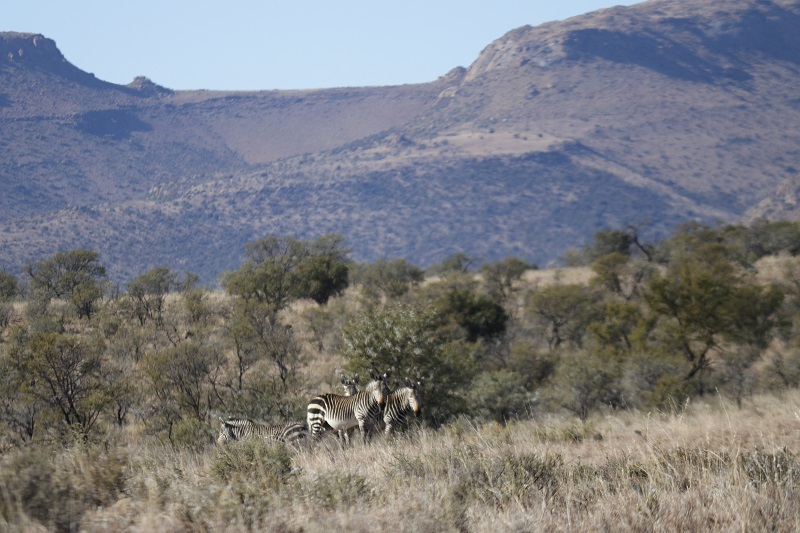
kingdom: Animalia
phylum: Chordata
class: Mammalia
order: Perissodactyla
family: Equidae
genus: Equus
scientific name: Equus zebra
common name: Mountain zebra
